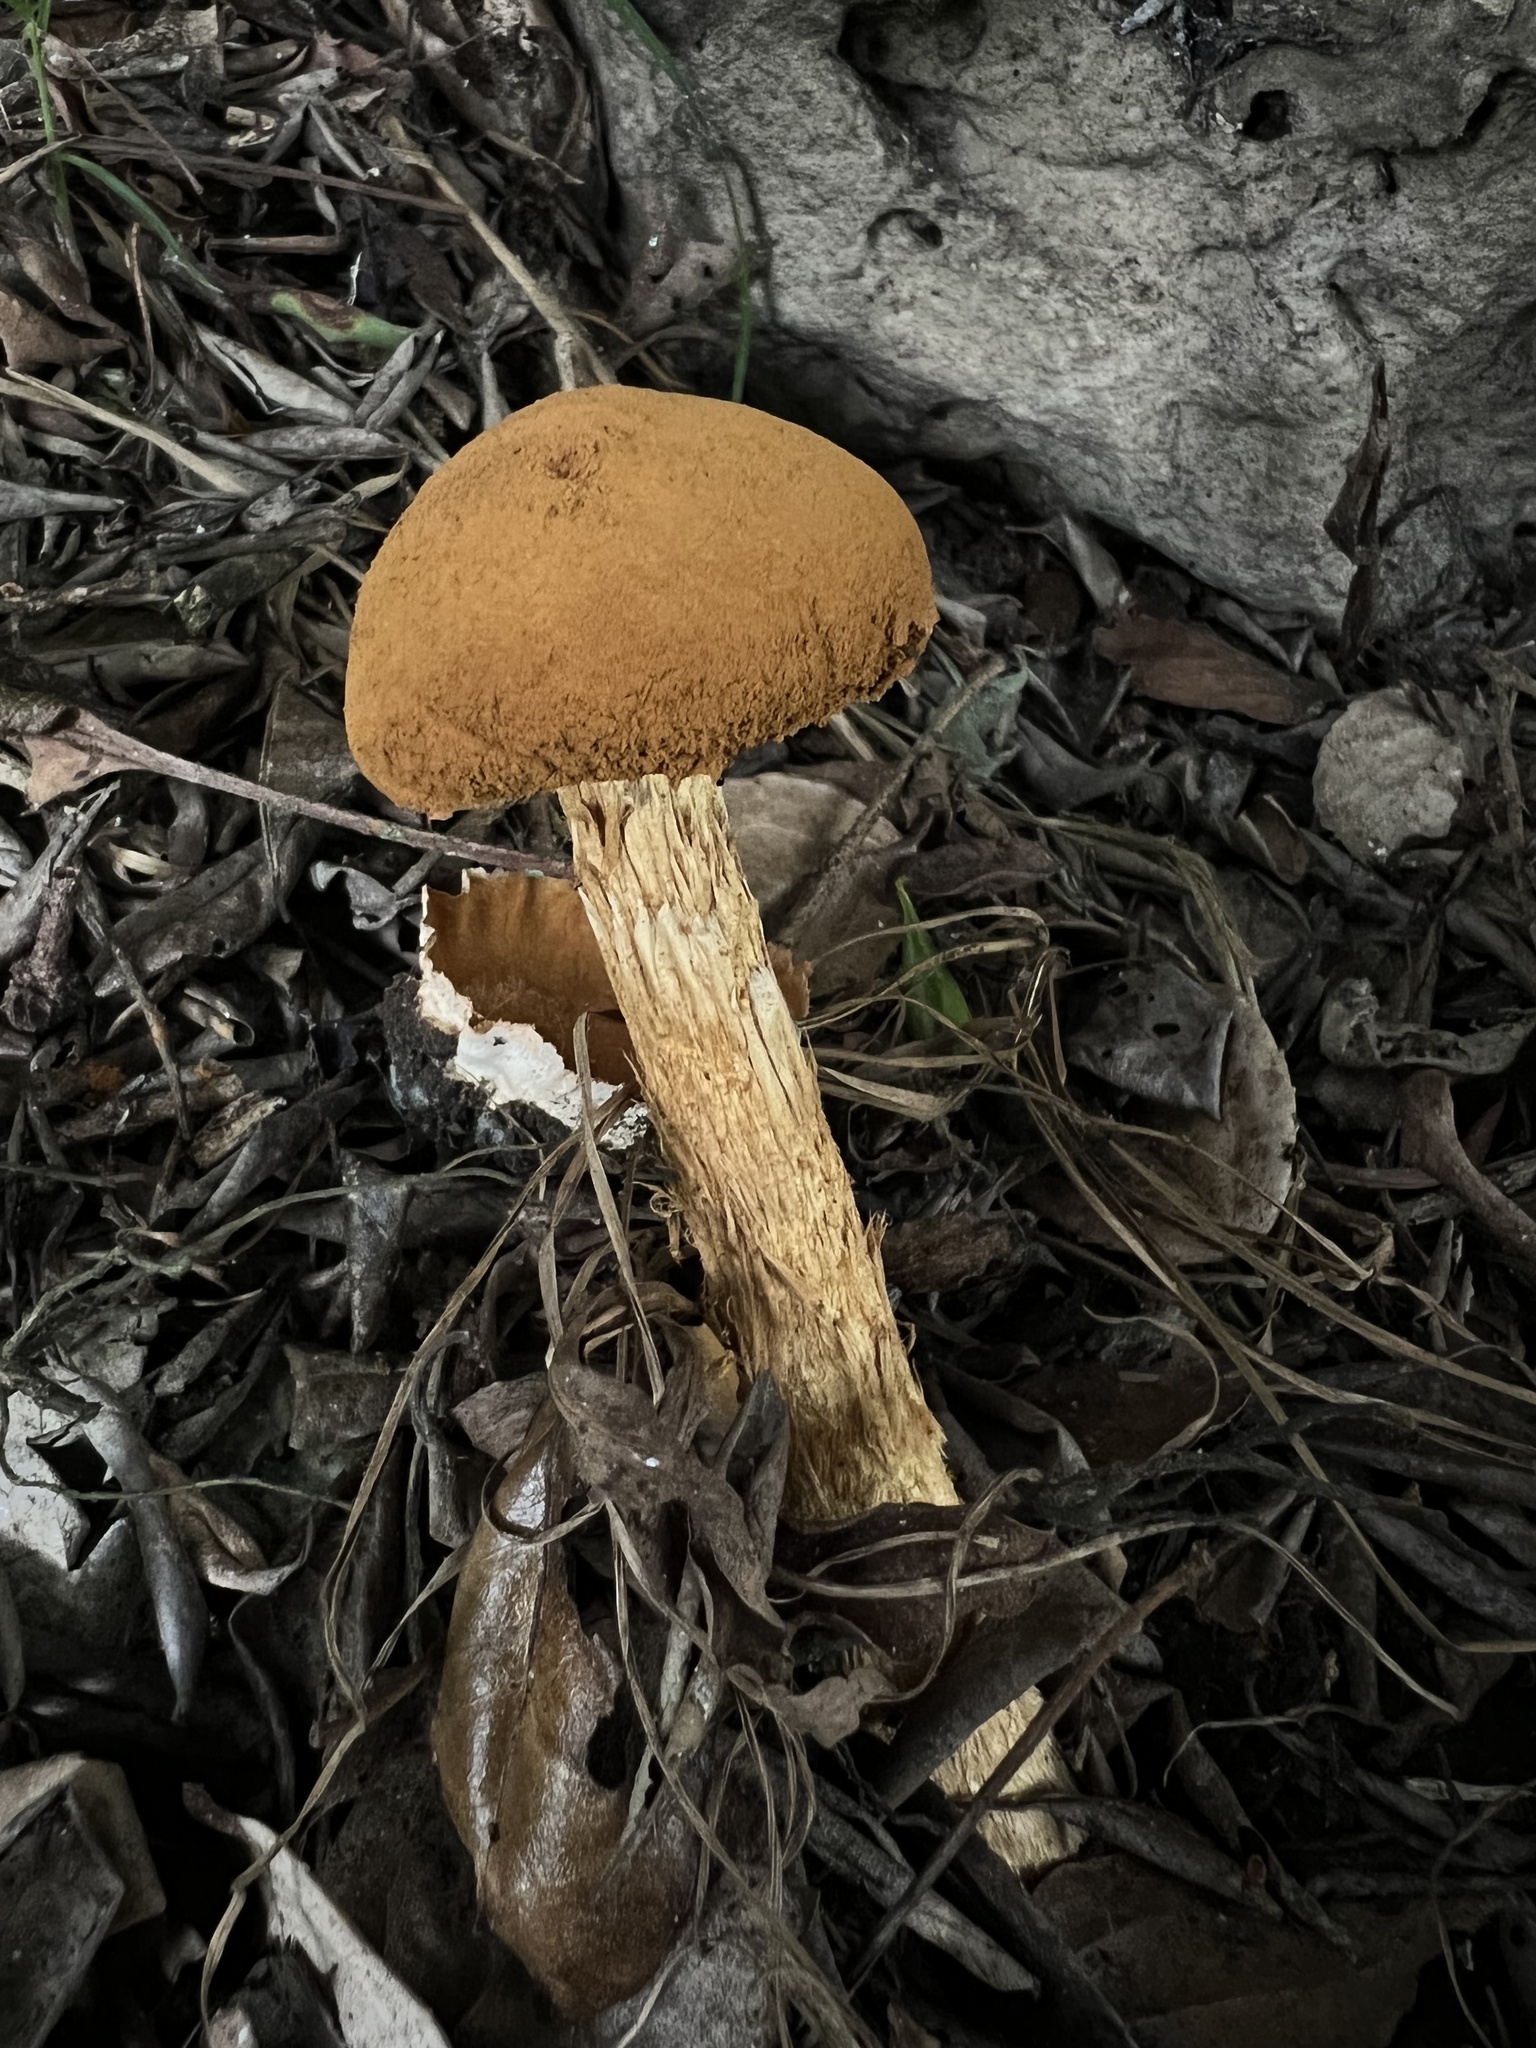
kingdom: Fungi
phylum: Basidiomycota
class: Agaricomycetes
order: Agaricales
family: Agaricaceae
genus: Battarrea
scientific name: Battarrea phalloides
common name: Sandy stiltball
